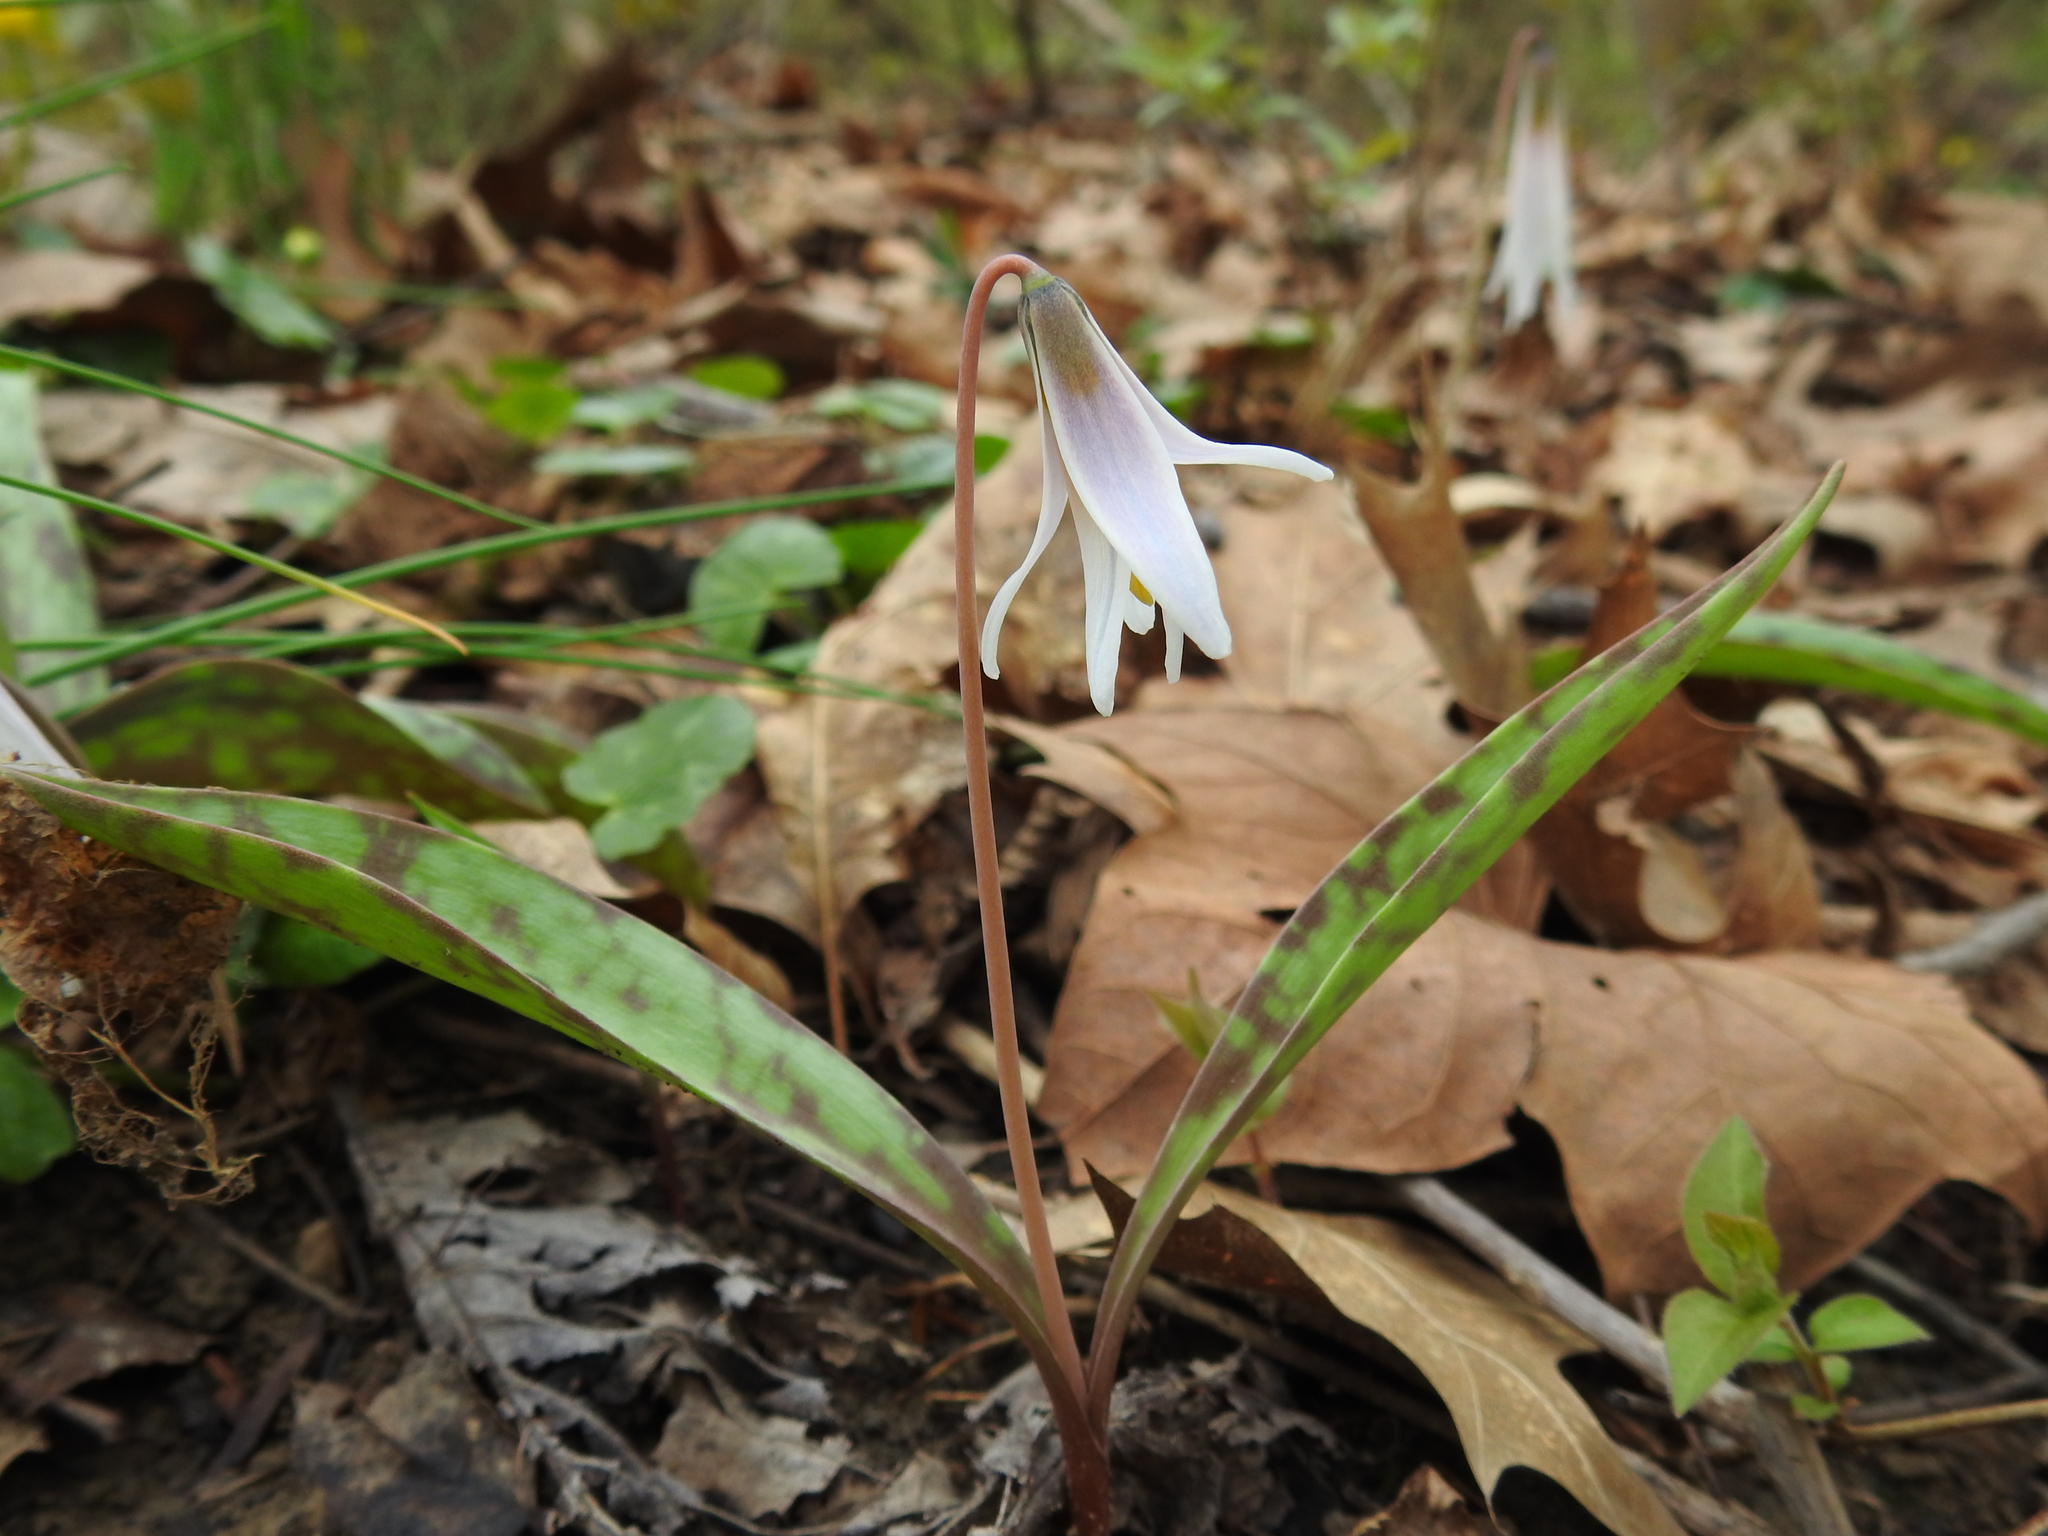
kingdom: Plantae
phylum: Tracheophyta
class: Liliopsida
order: Liliales
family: Liliaceae
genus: Erythronium
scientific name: Erythronium albidum
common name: White trout-lily
